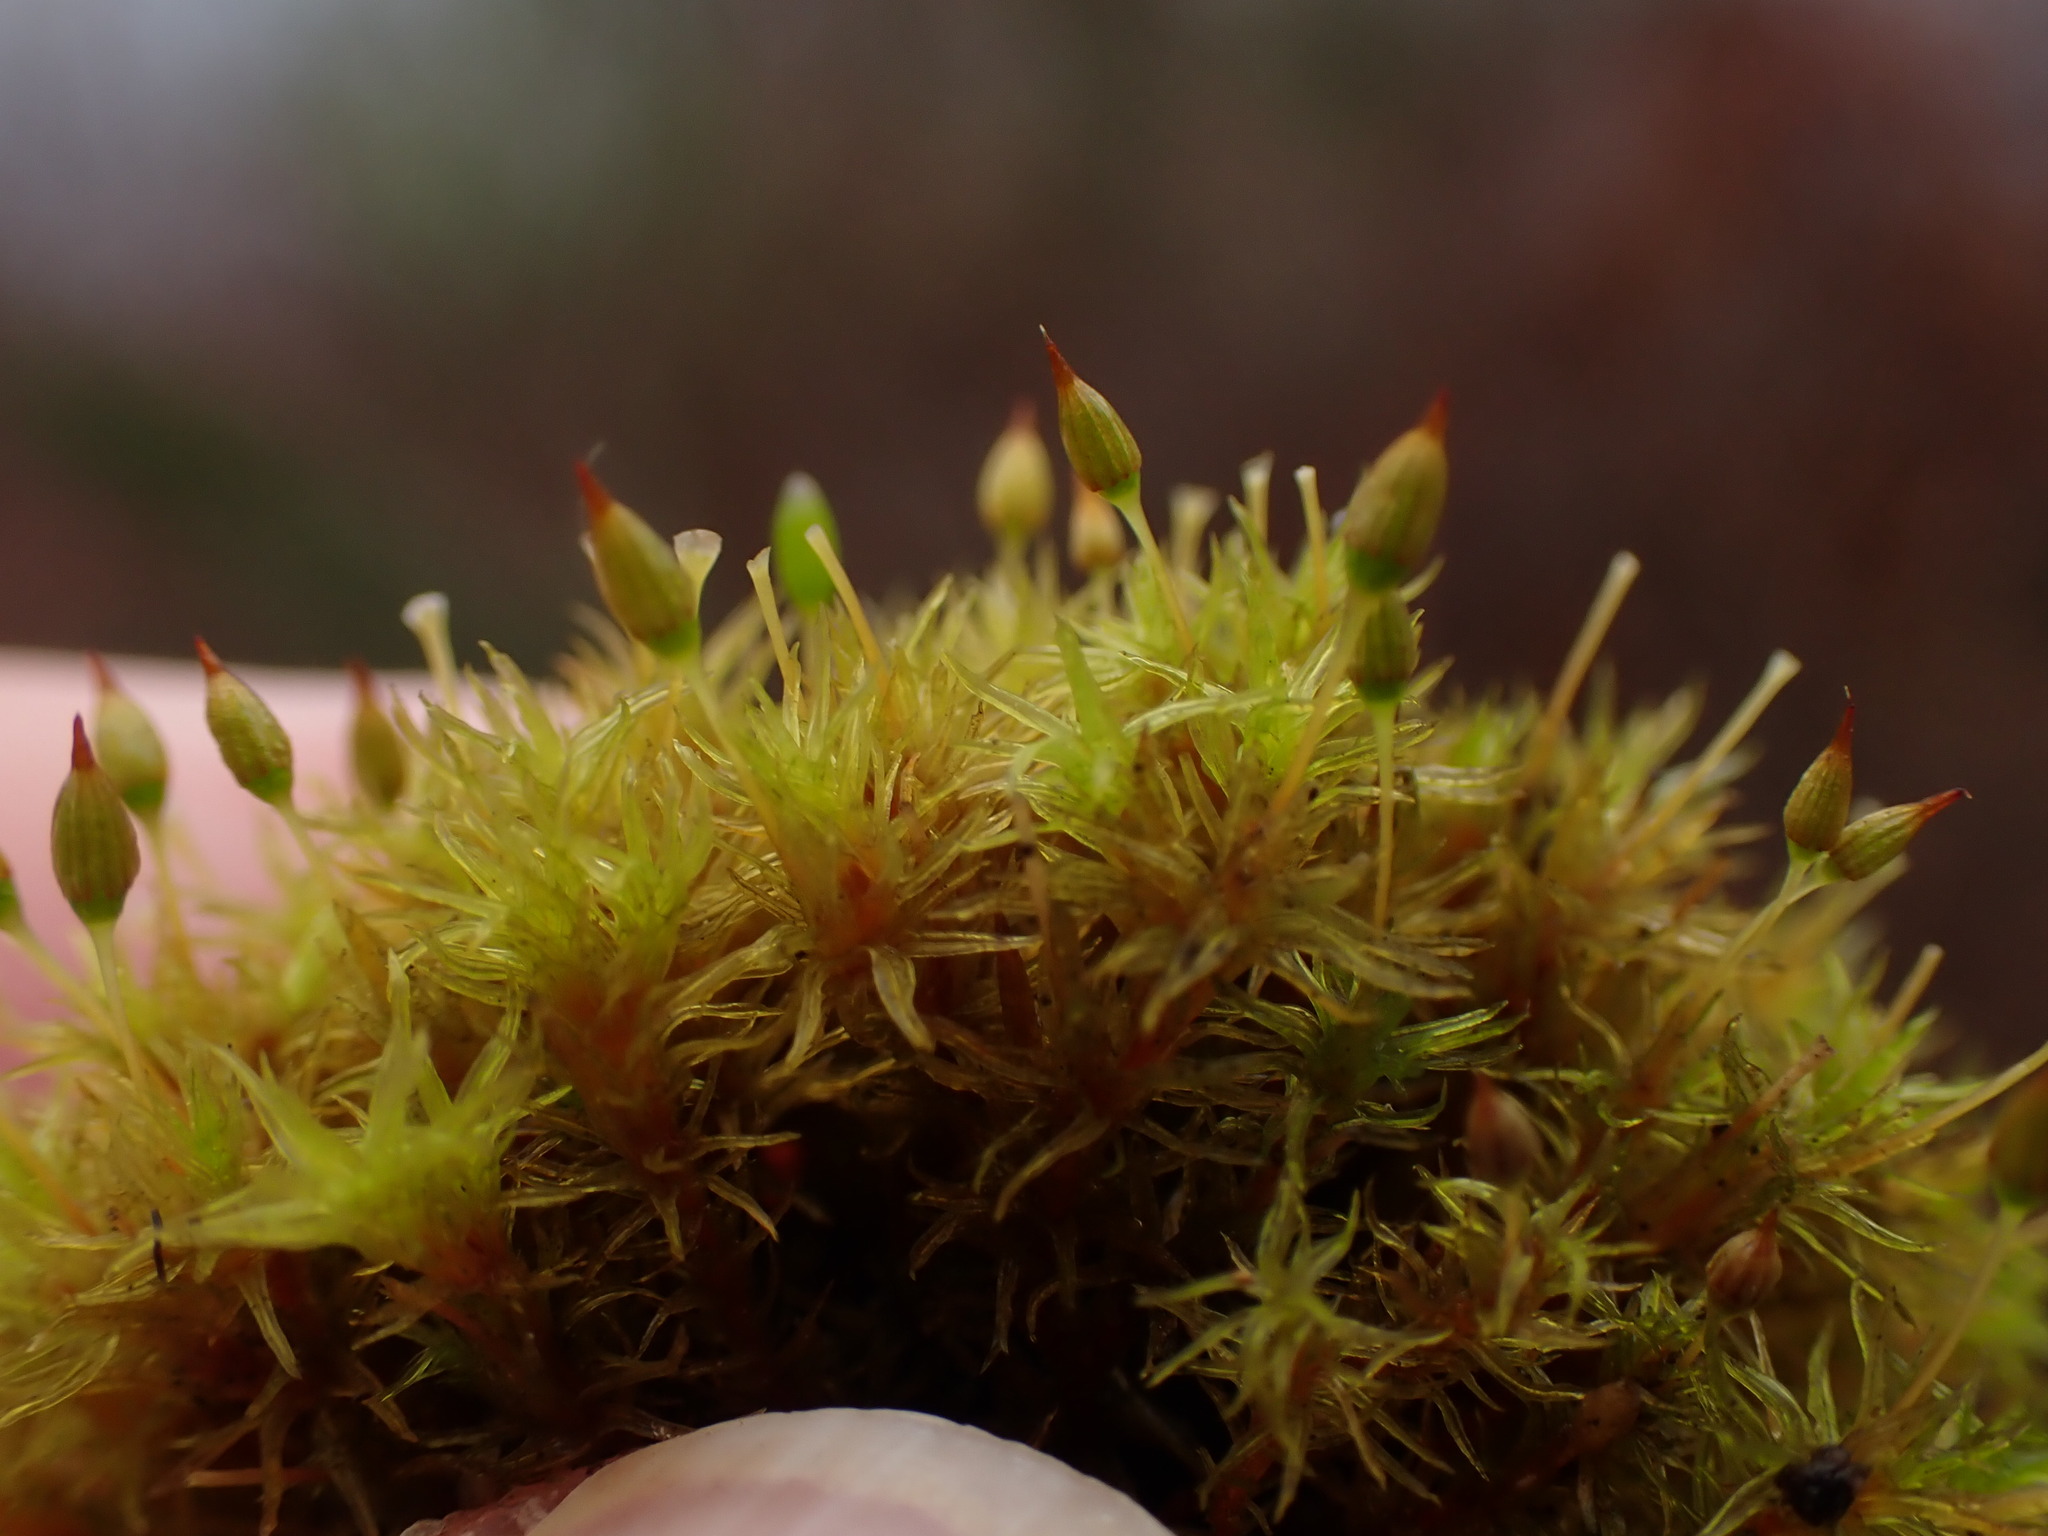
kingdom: Plantae
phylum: Bryophyta
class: Bryopsida
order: Orthotrichales
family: Orthotrichaceae
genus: Orthotrichum
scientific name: Orthotrichum pulchellum
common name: Elegant bristle-moss
